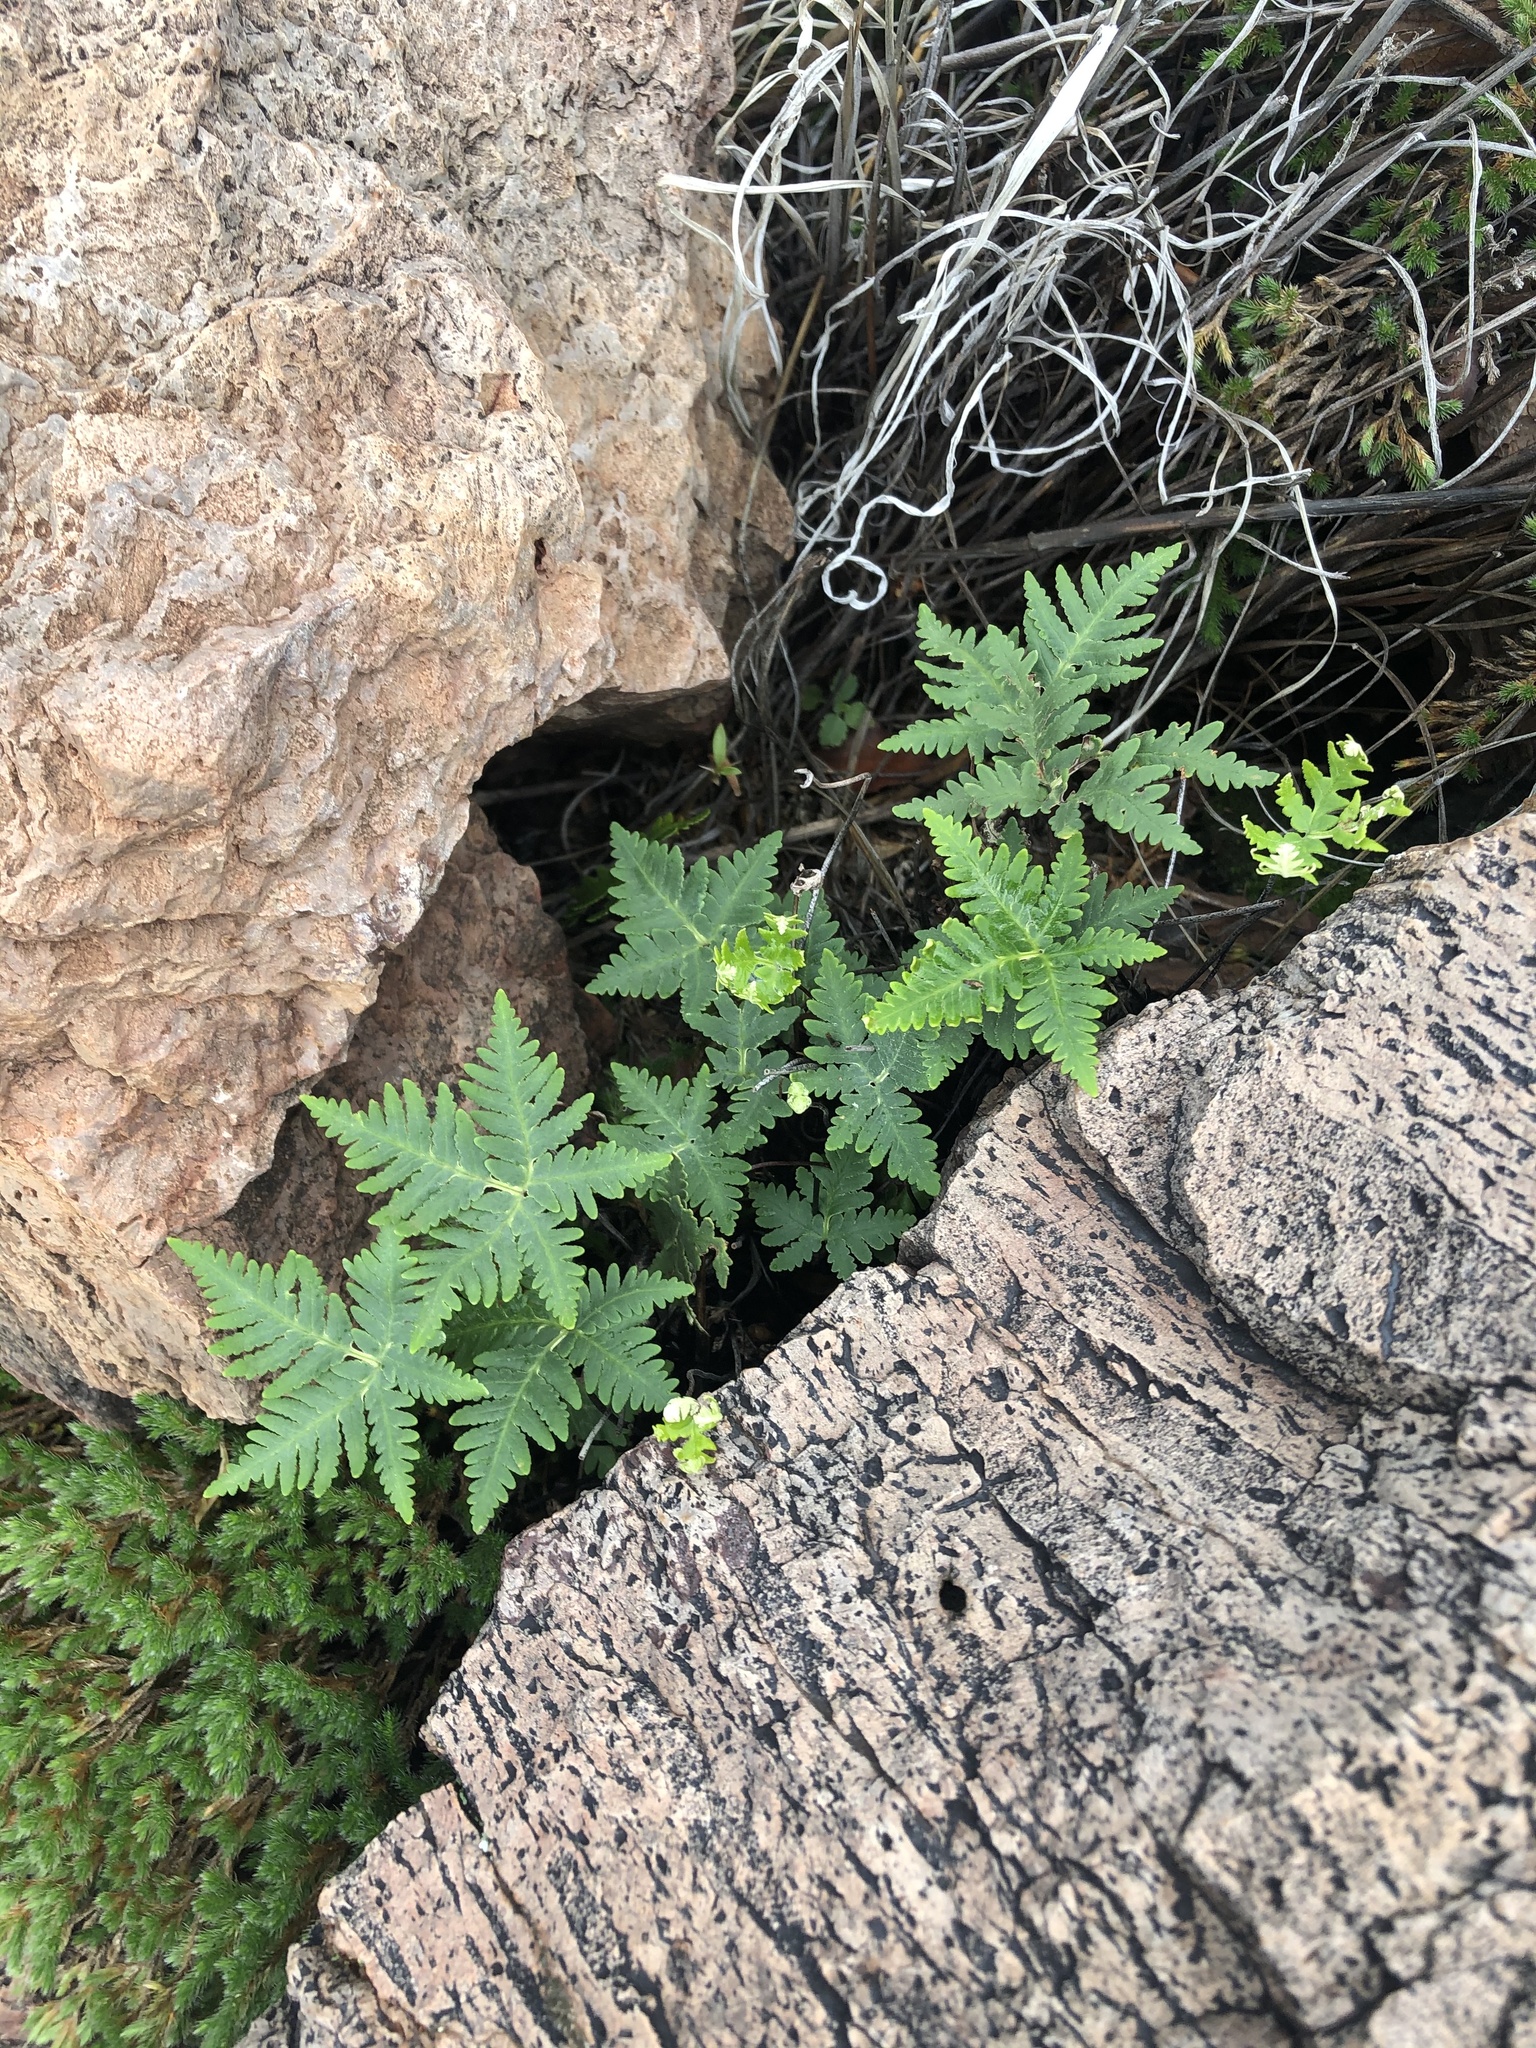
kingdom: Plantae
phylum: Tracheophyta
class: Polypodiopsida
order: Polypodiales
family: Pteridaceae
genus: Notholaena
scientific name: Notholaena standleyi
